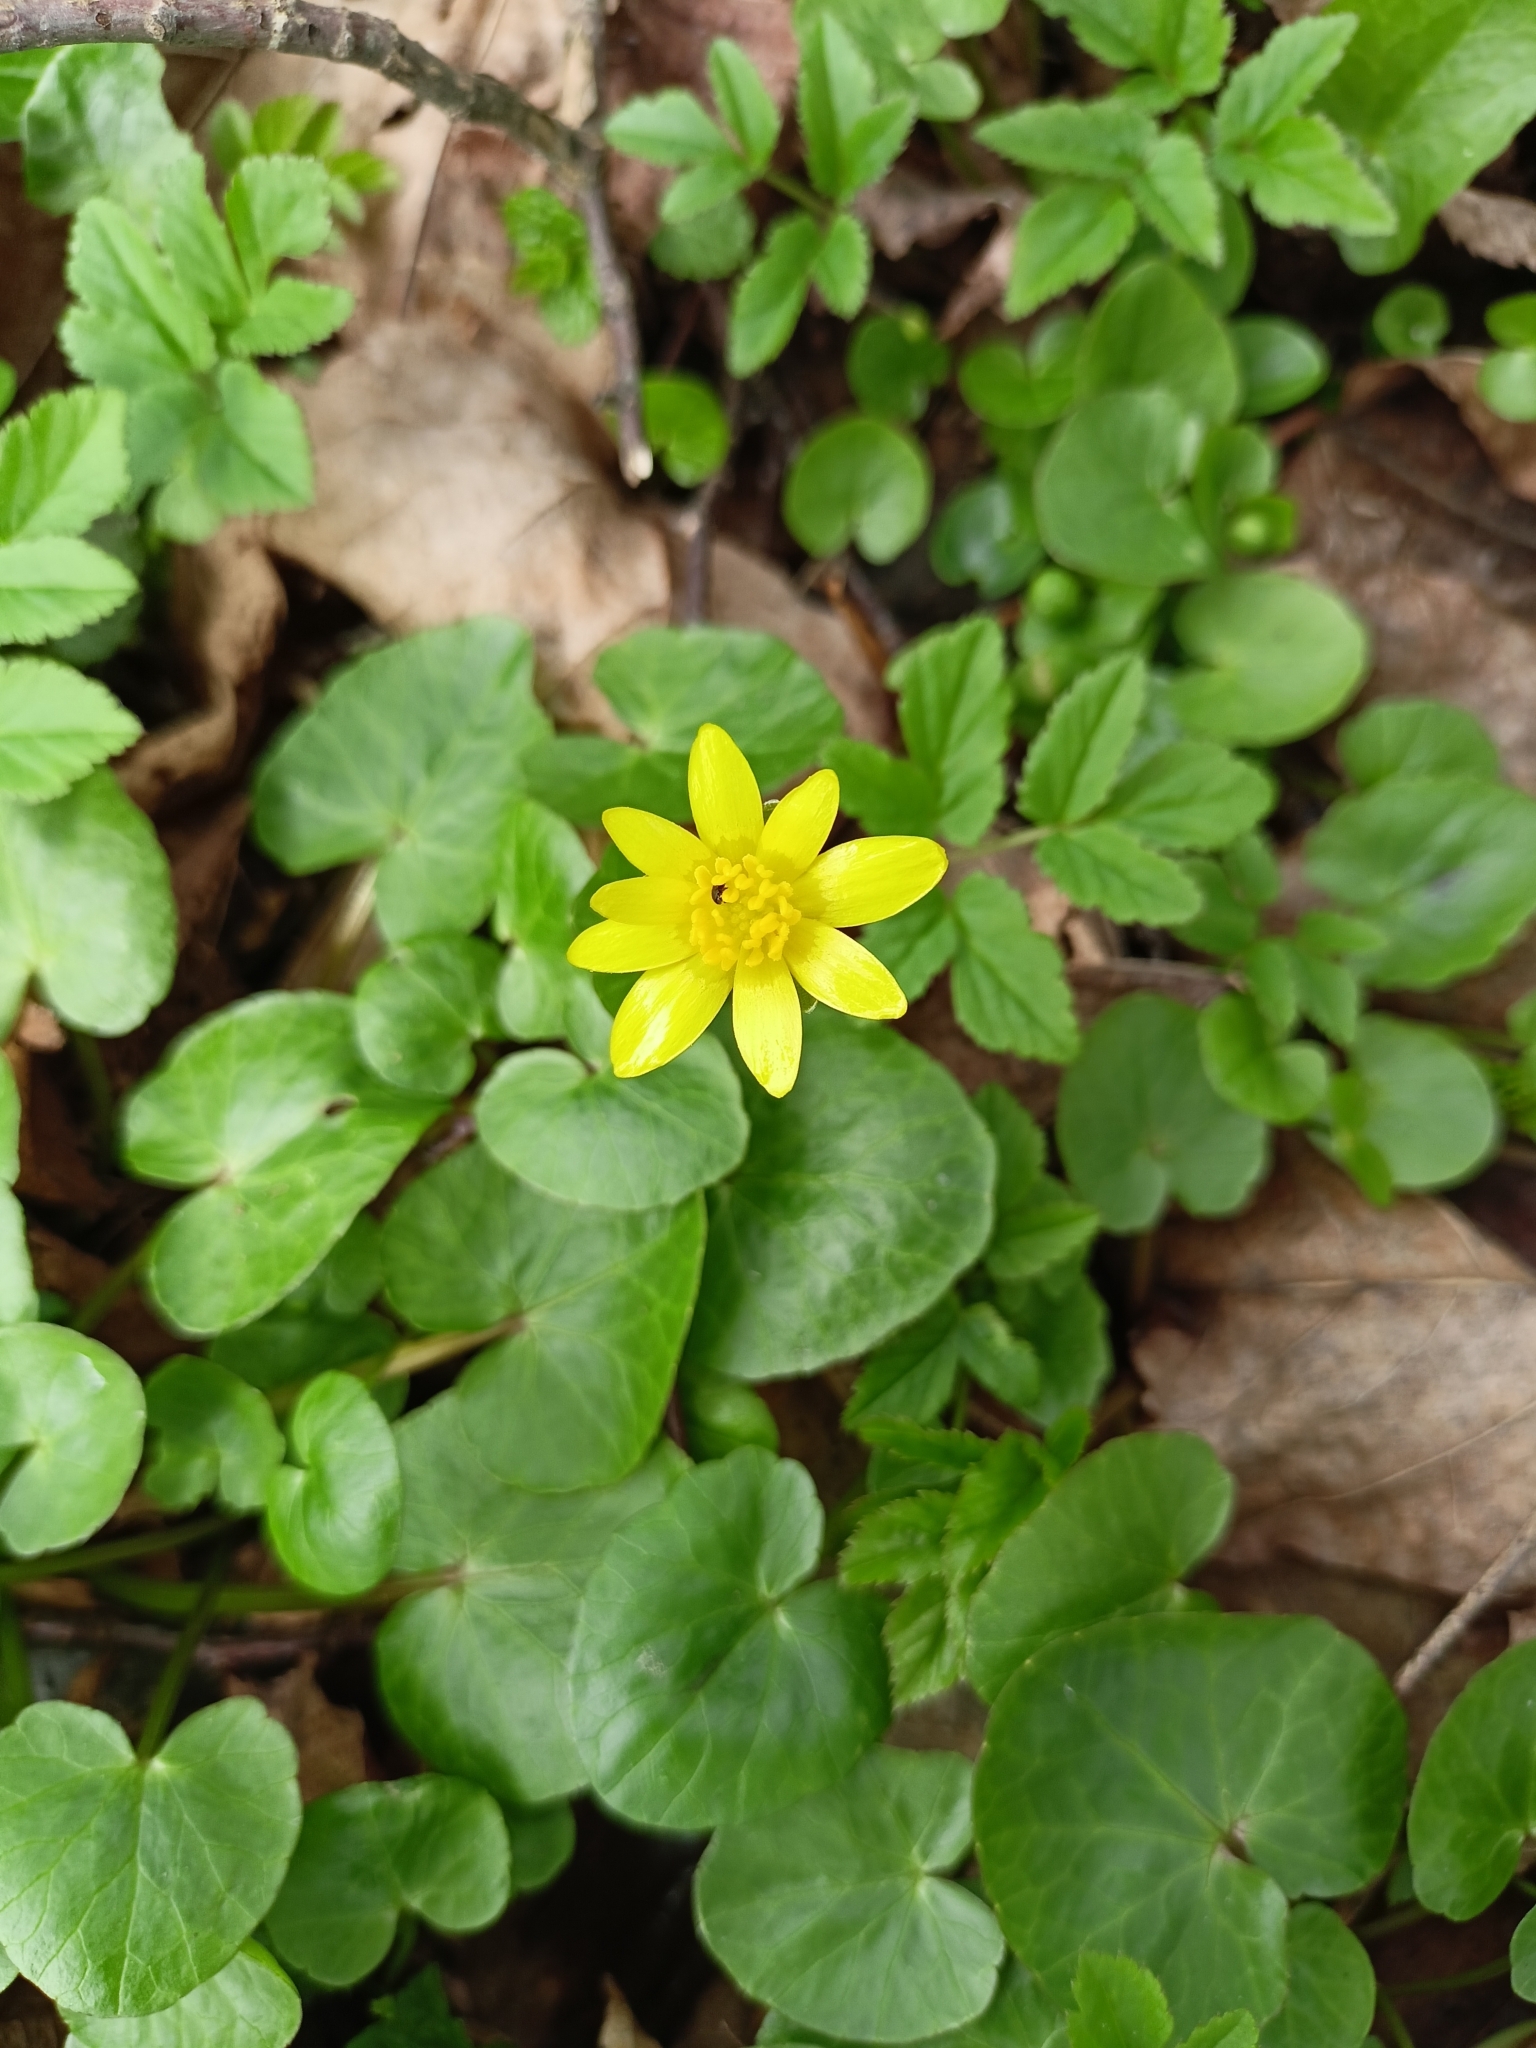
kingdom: Plantae
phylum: Tracheophyta
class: Magnoliopsida
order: Ranunculales
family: Ranunculaceae
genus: Ficaria
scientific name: Ficaria verna
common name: Lesser celandine
